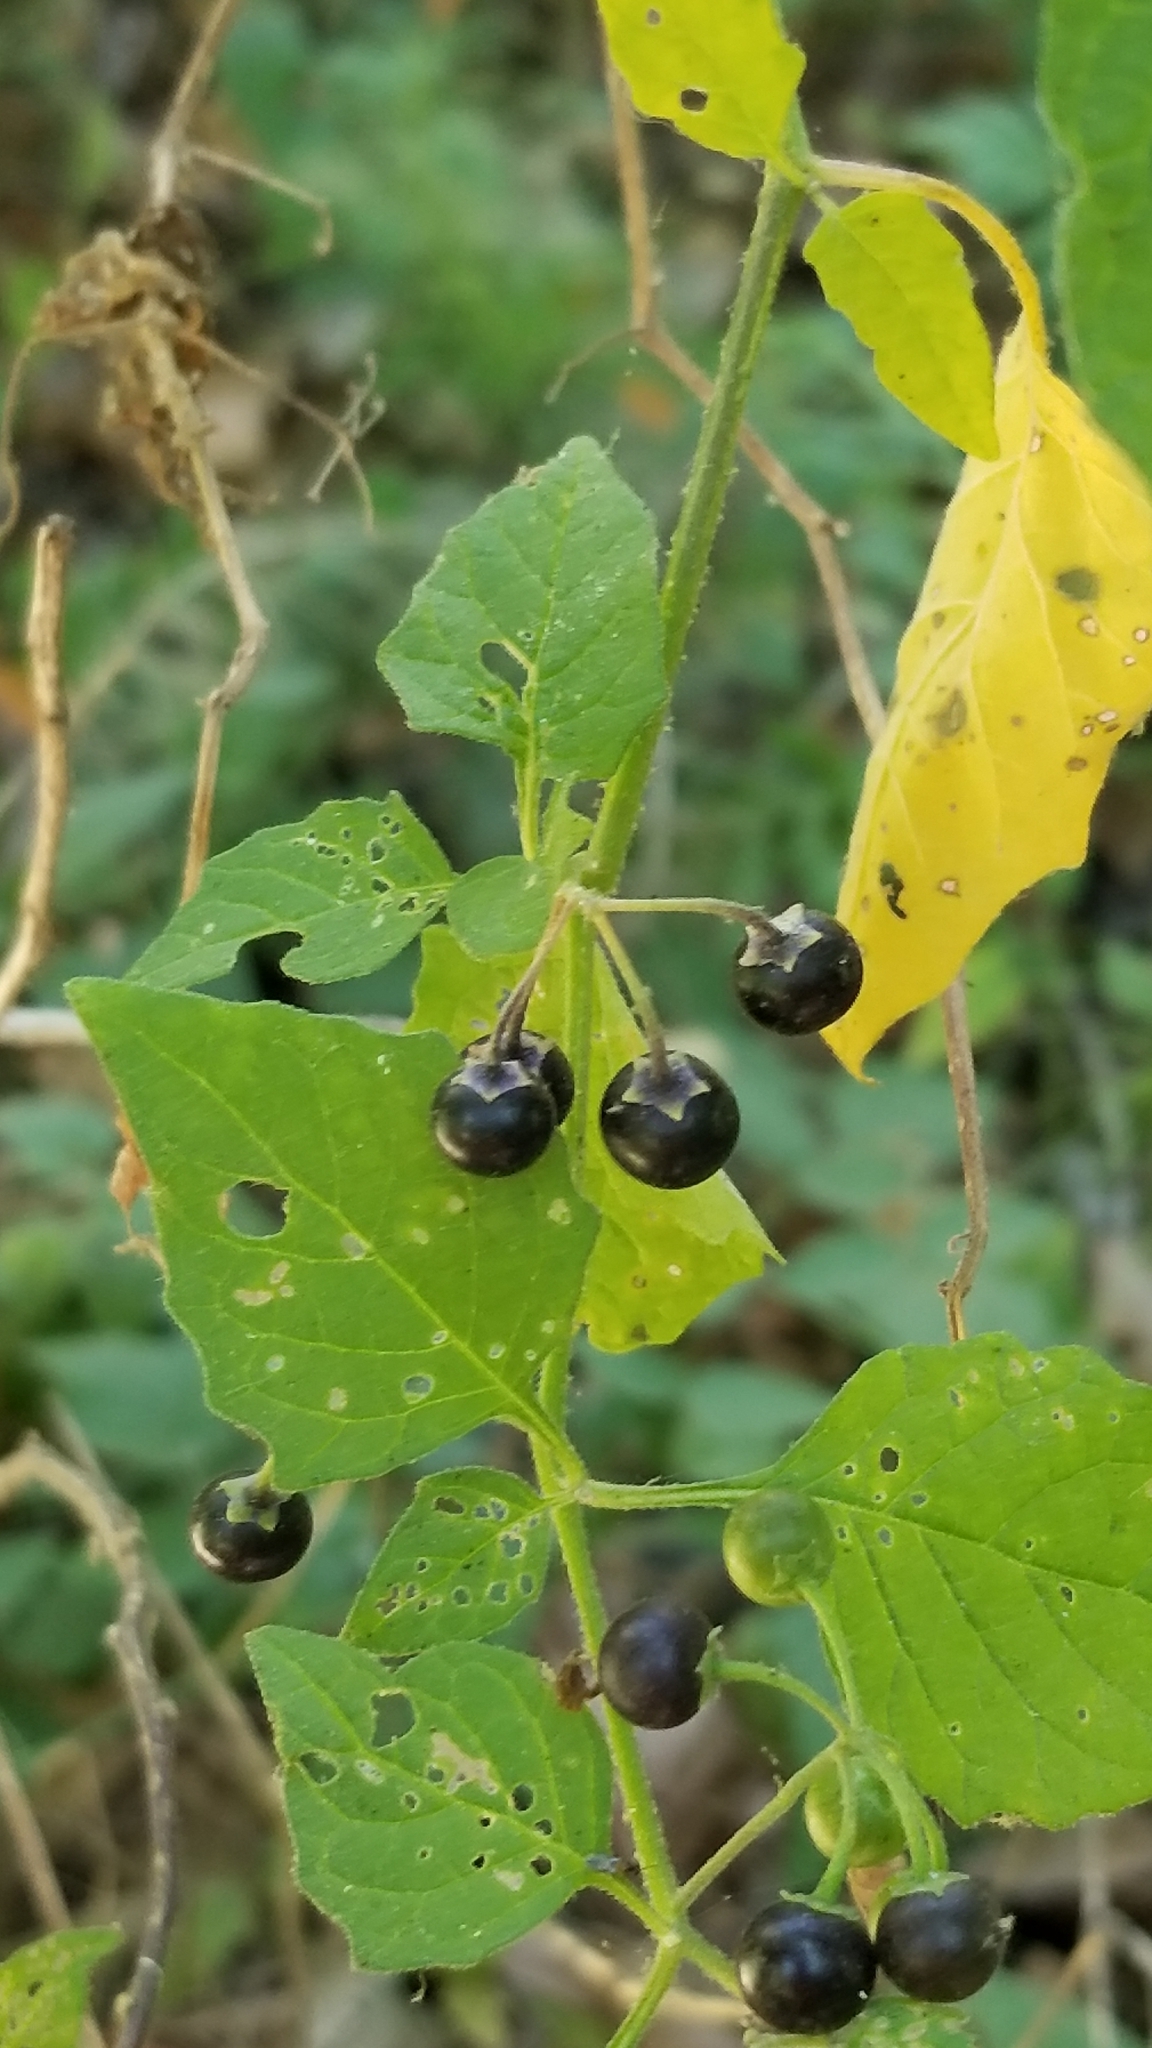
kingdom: Plantae
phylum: Tracheophyta
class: Magnoliopsida
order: Solanales
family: Solanaceae
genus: Solanum
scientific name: Solanum douglasii
